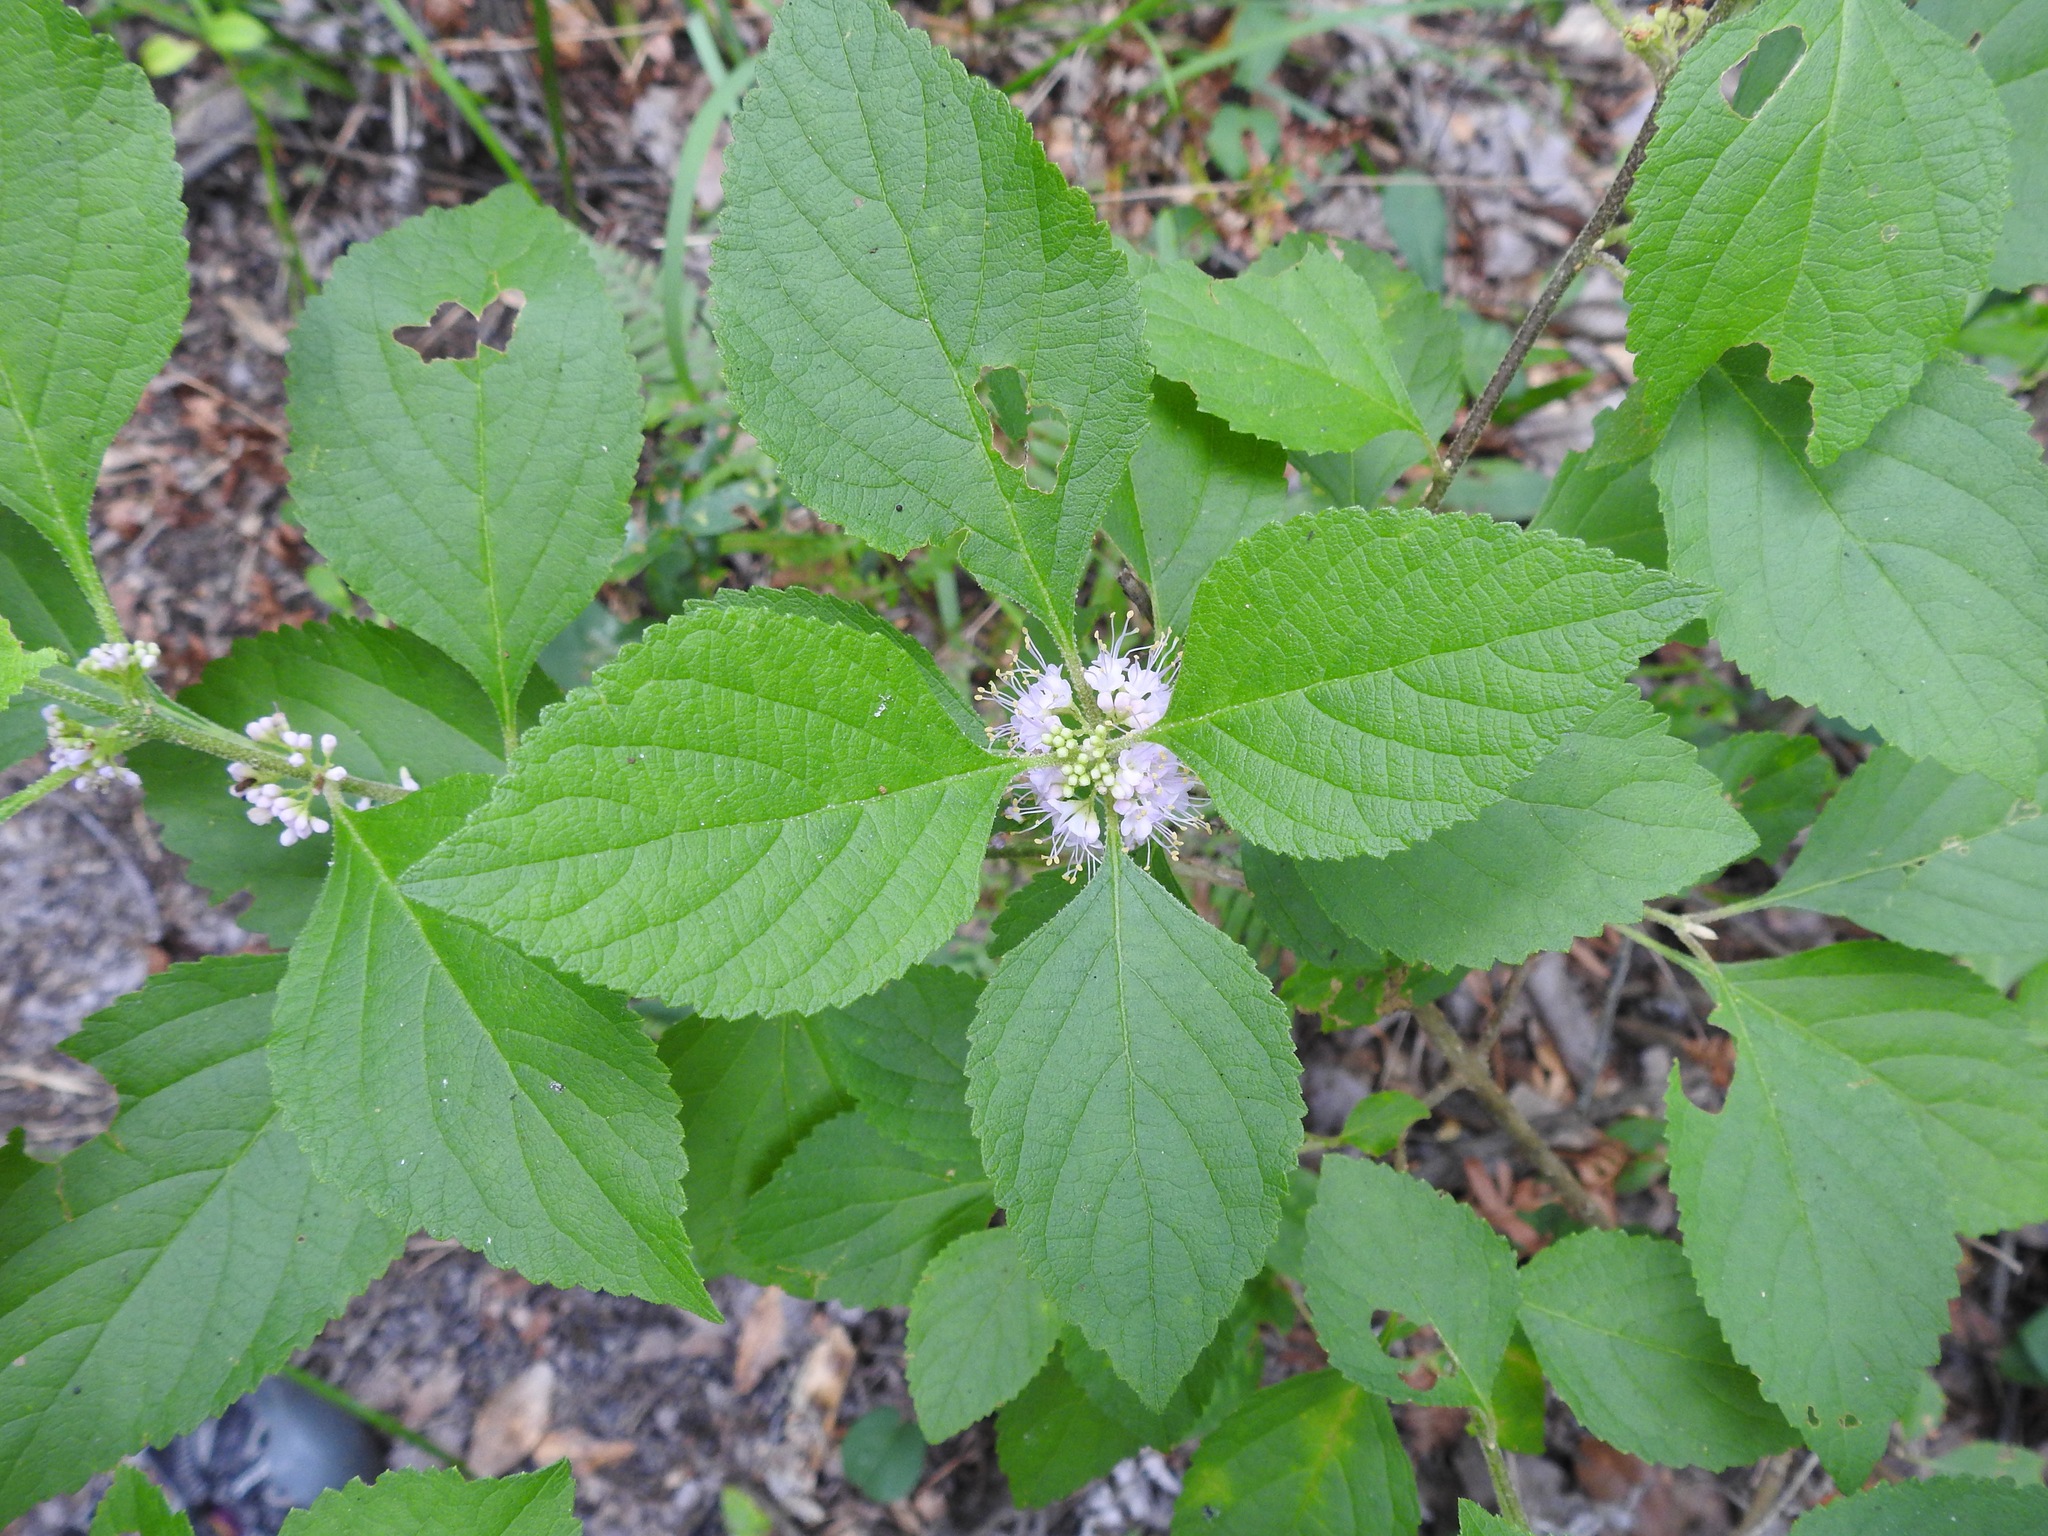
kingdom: Plantae
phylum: Tracheophyta
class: Magnoliopsida
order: Lamiales
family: Lamiaceae
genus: Callicarpa
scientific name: Callicarpa americana
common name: American beautyberry
